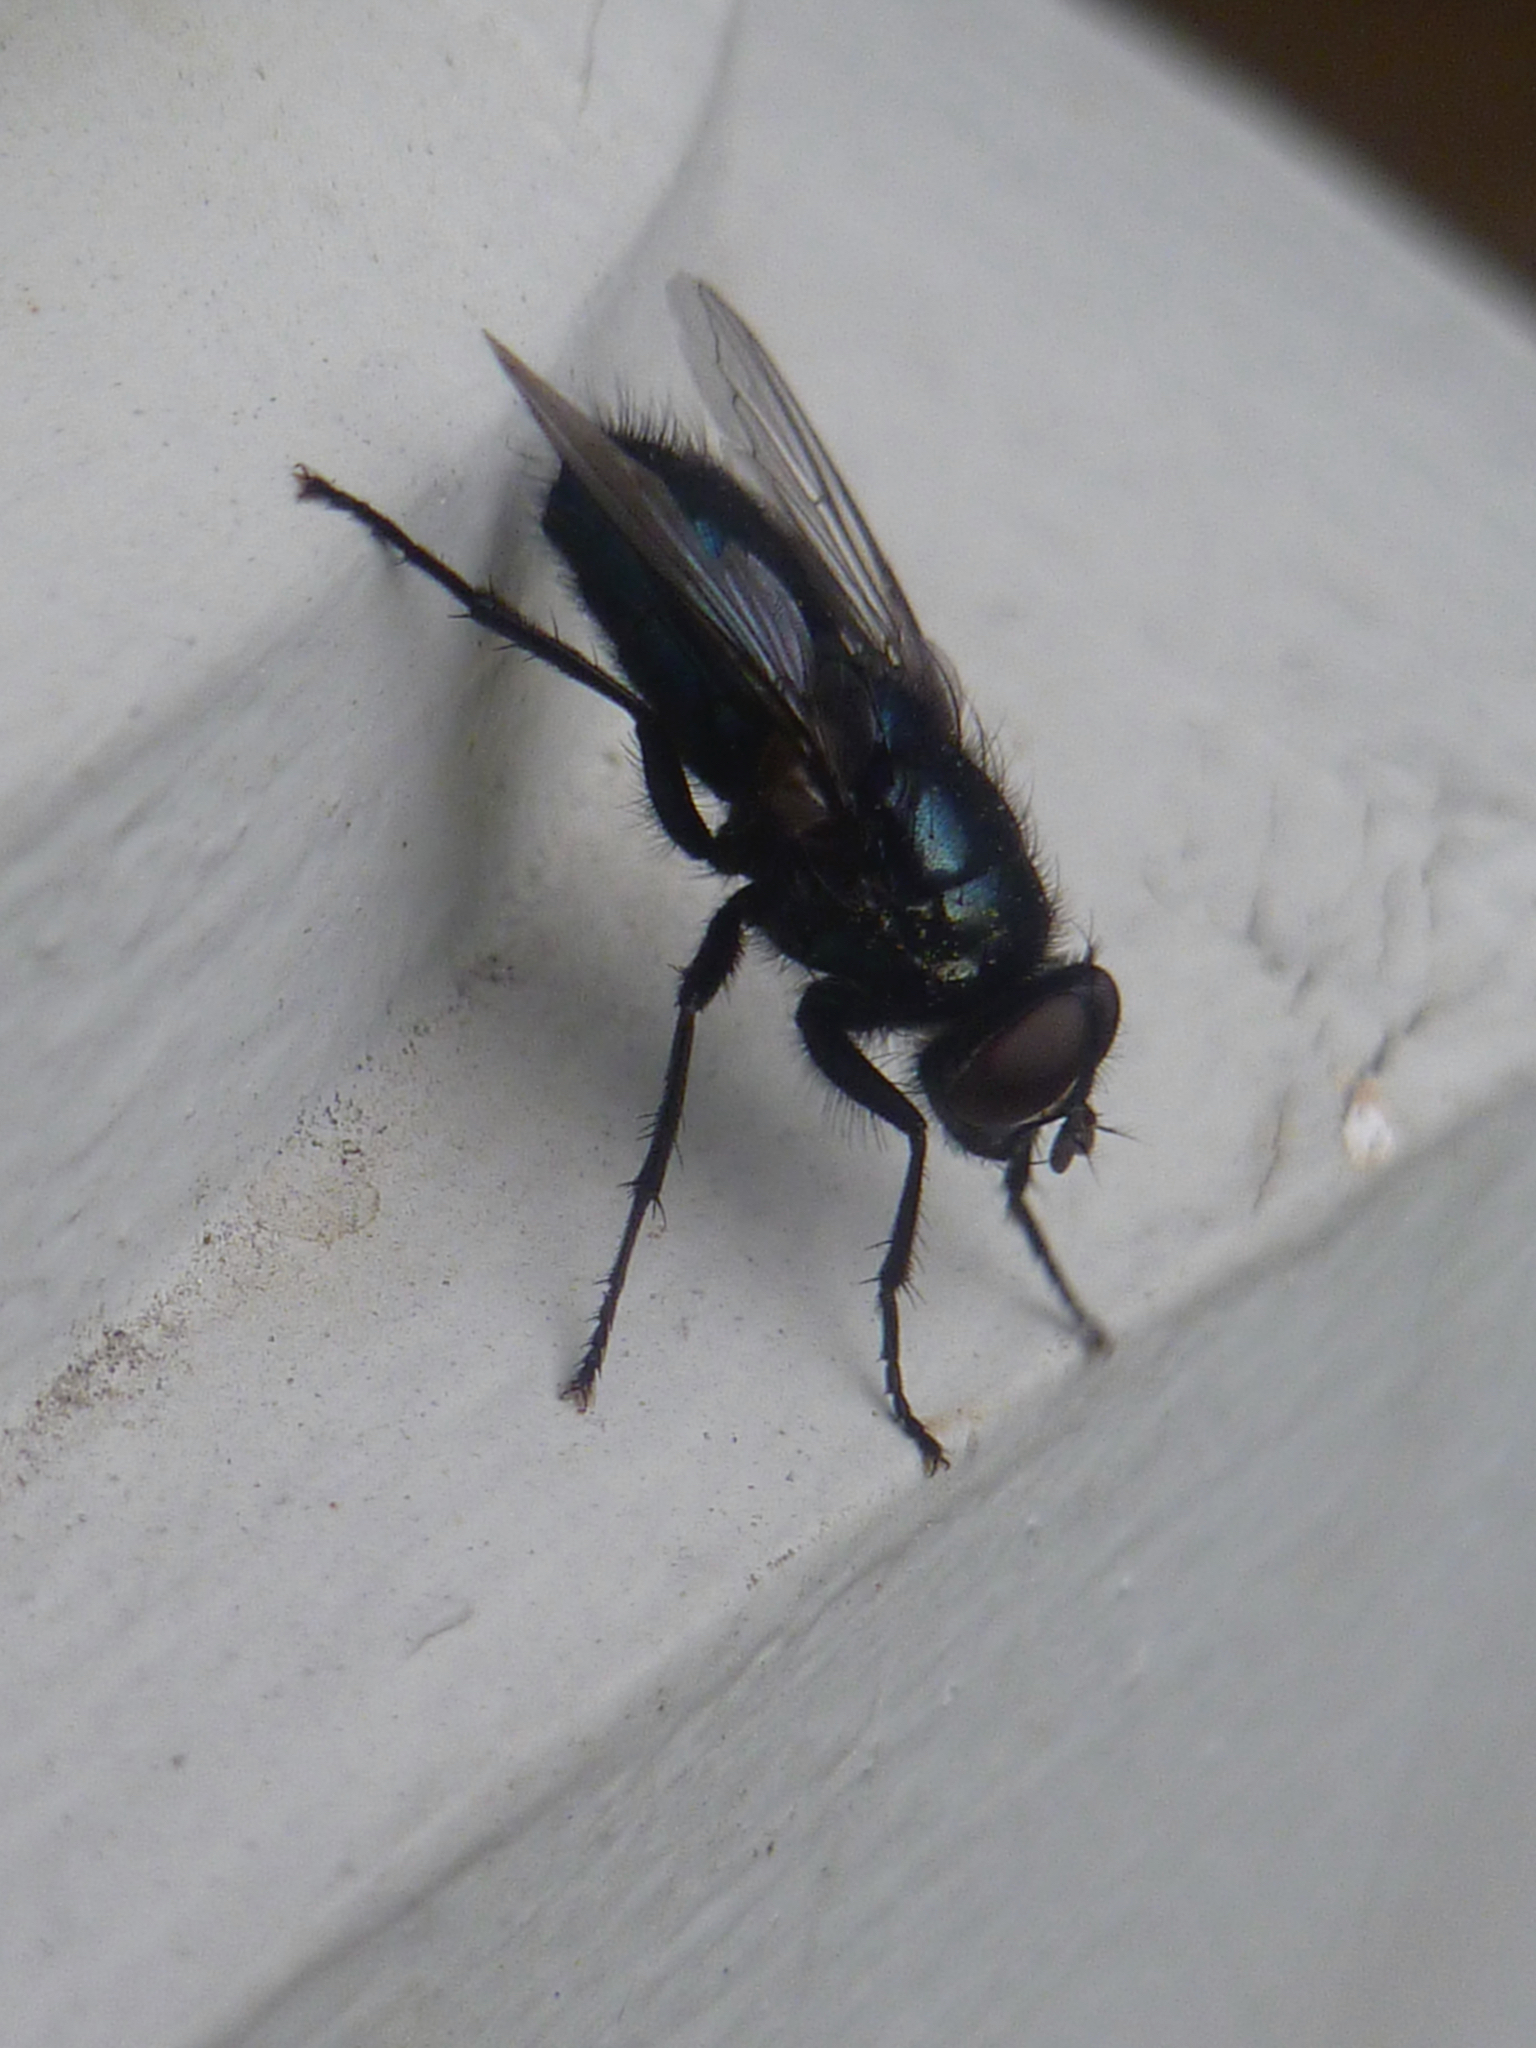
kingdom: Animalia
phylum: Arthropoda
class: Insecta
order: Diptera
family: Calliphoridae
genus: Protophormia
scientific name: Protophormia terraenovae
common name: Blackbottle
